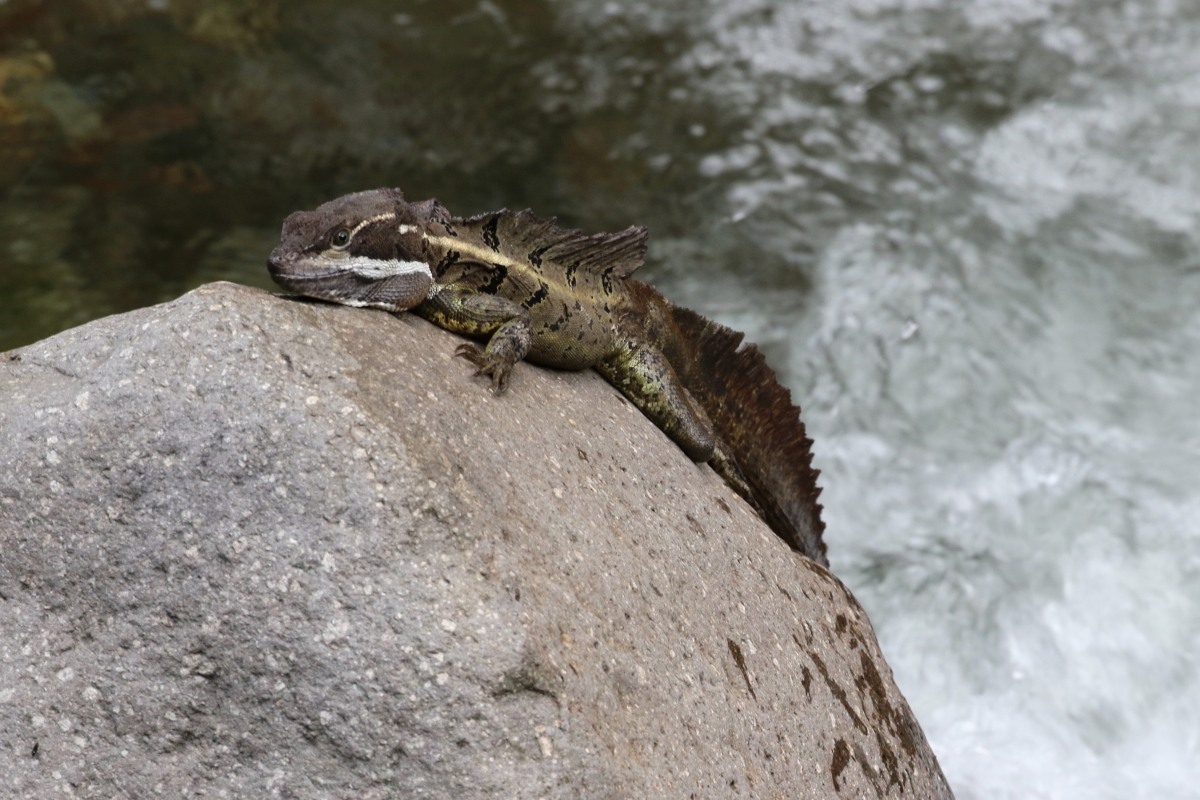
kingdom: Animalia
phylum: Chordata
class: Squamata
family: Corytophanidae
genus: Basiliscus
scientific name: Basiliscus basiliscus
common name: Common basilisk
